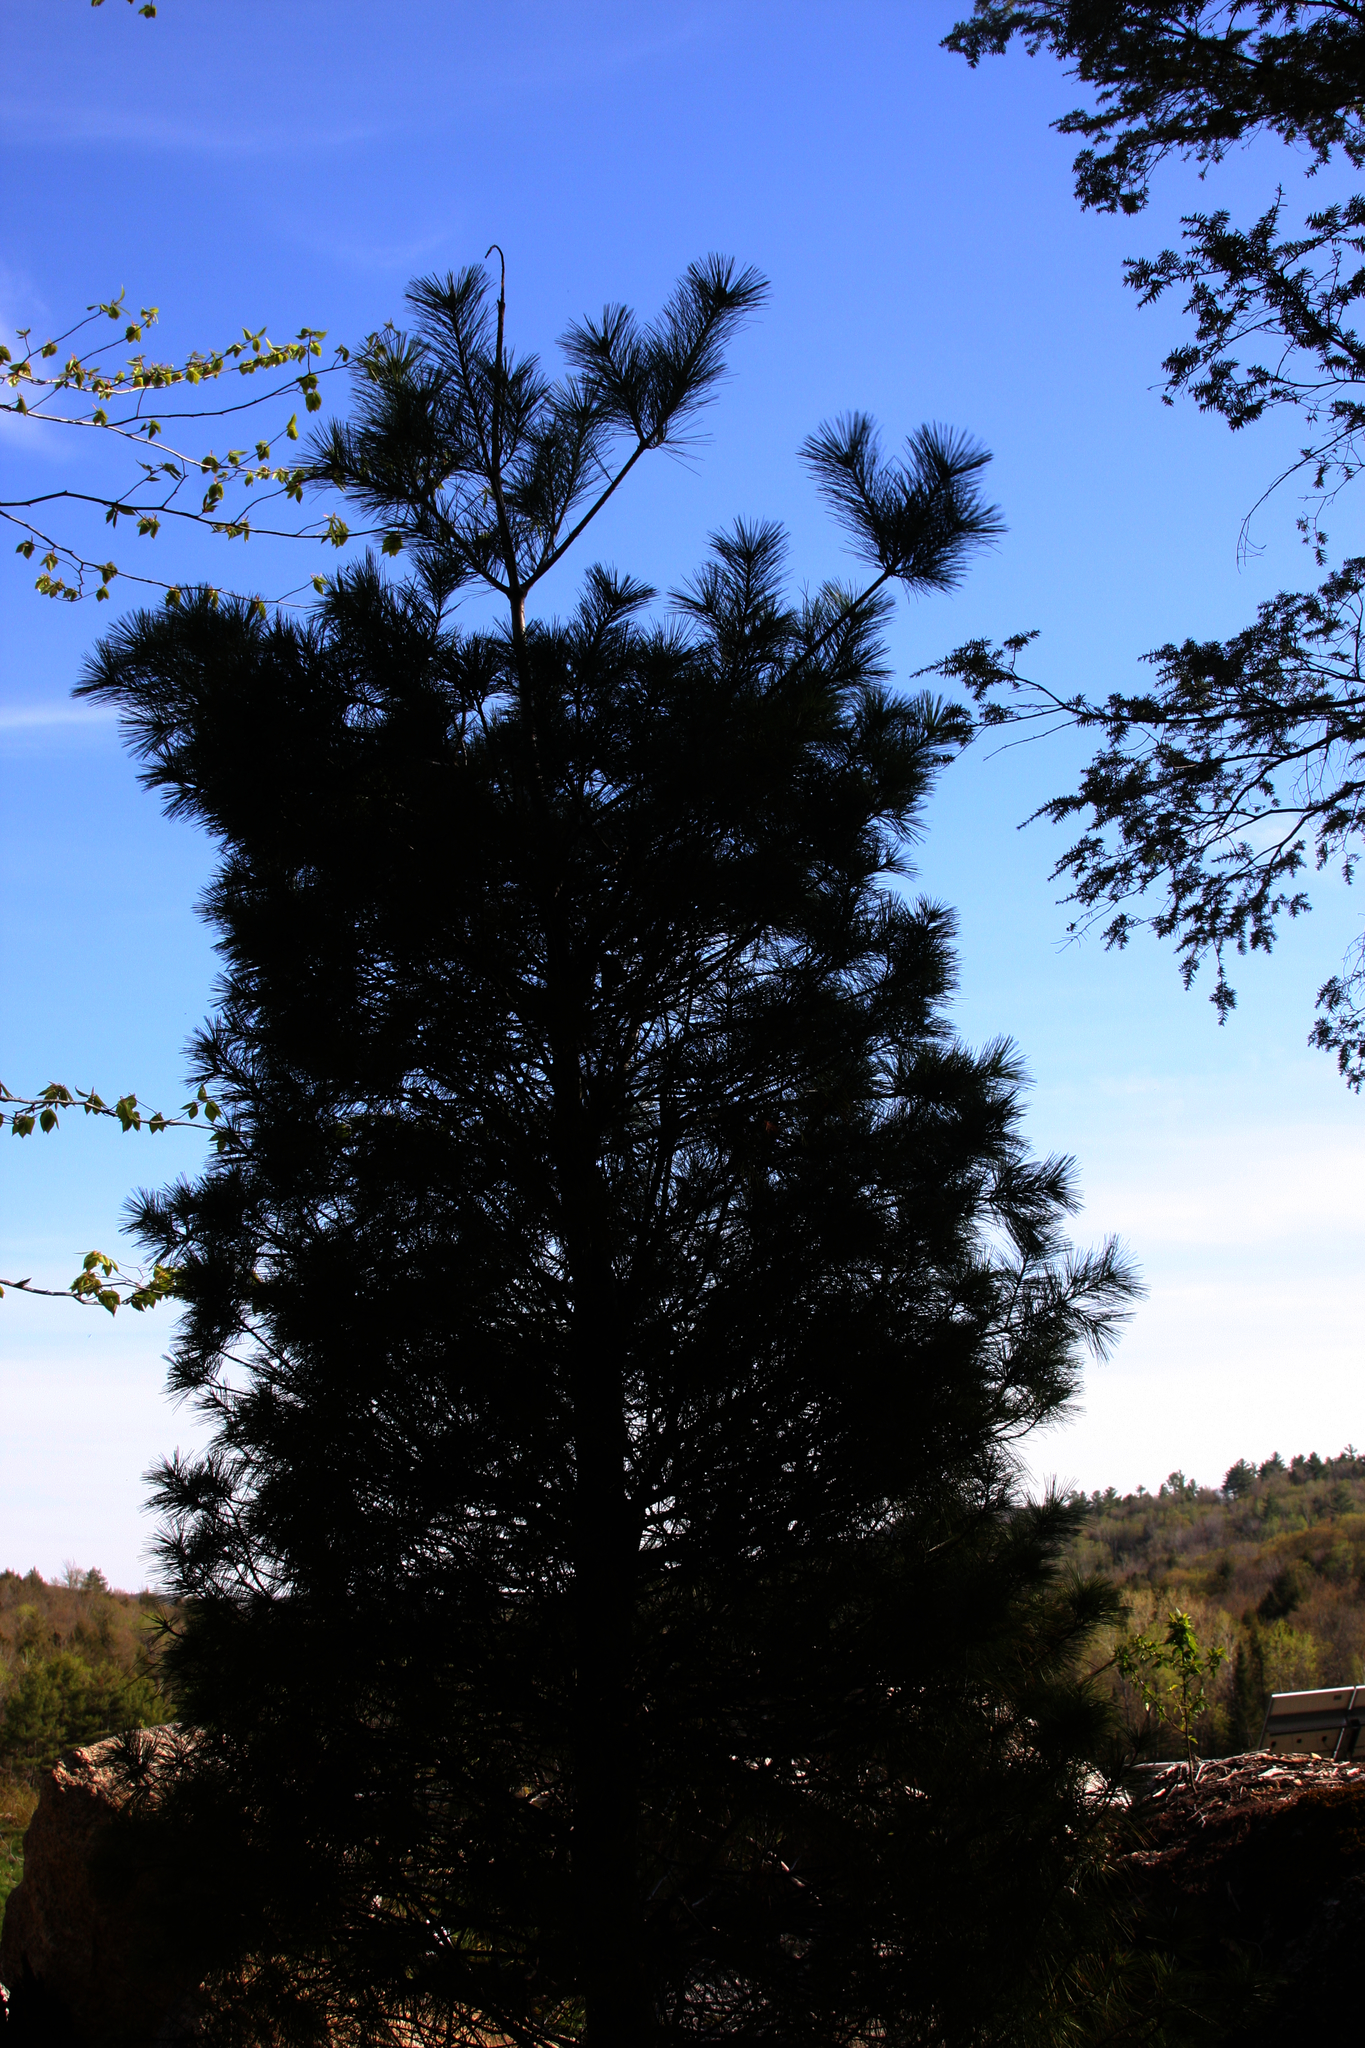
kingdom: Plantae
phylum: Tracheophyta
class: Pinopsida
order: Pinales
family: Pinaceae
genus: Pinus
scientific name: Pinus strobus
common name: Weymouth pine
